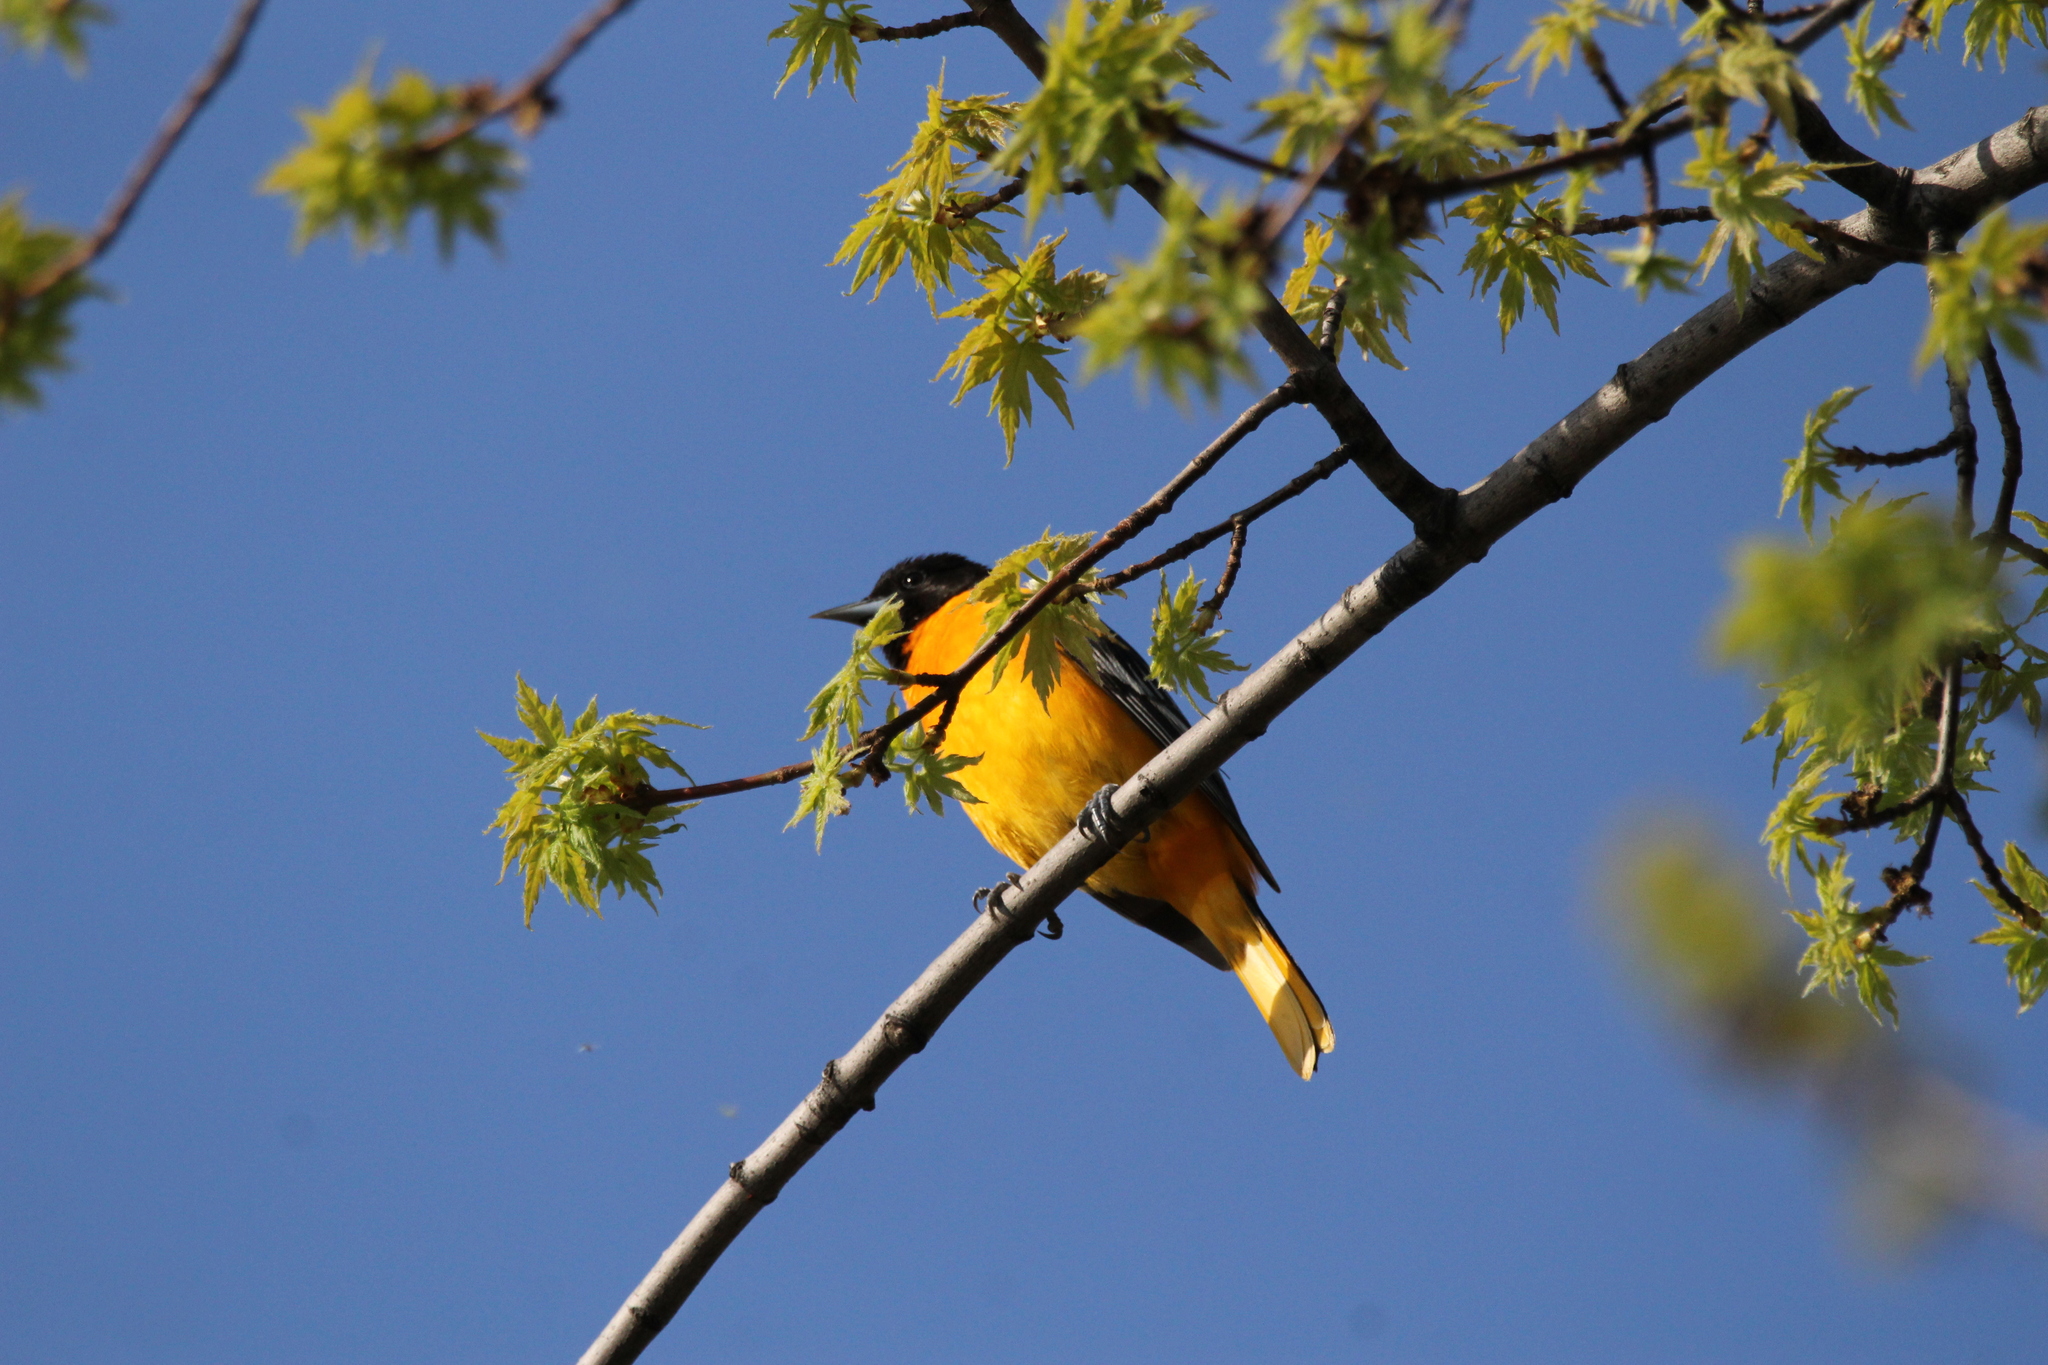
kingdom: Animalia
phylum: Chordata
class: Aves
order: Passeriformes
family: Icteridae
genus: Icterus
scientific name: Icterus galbula
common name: Baltimore oriole
